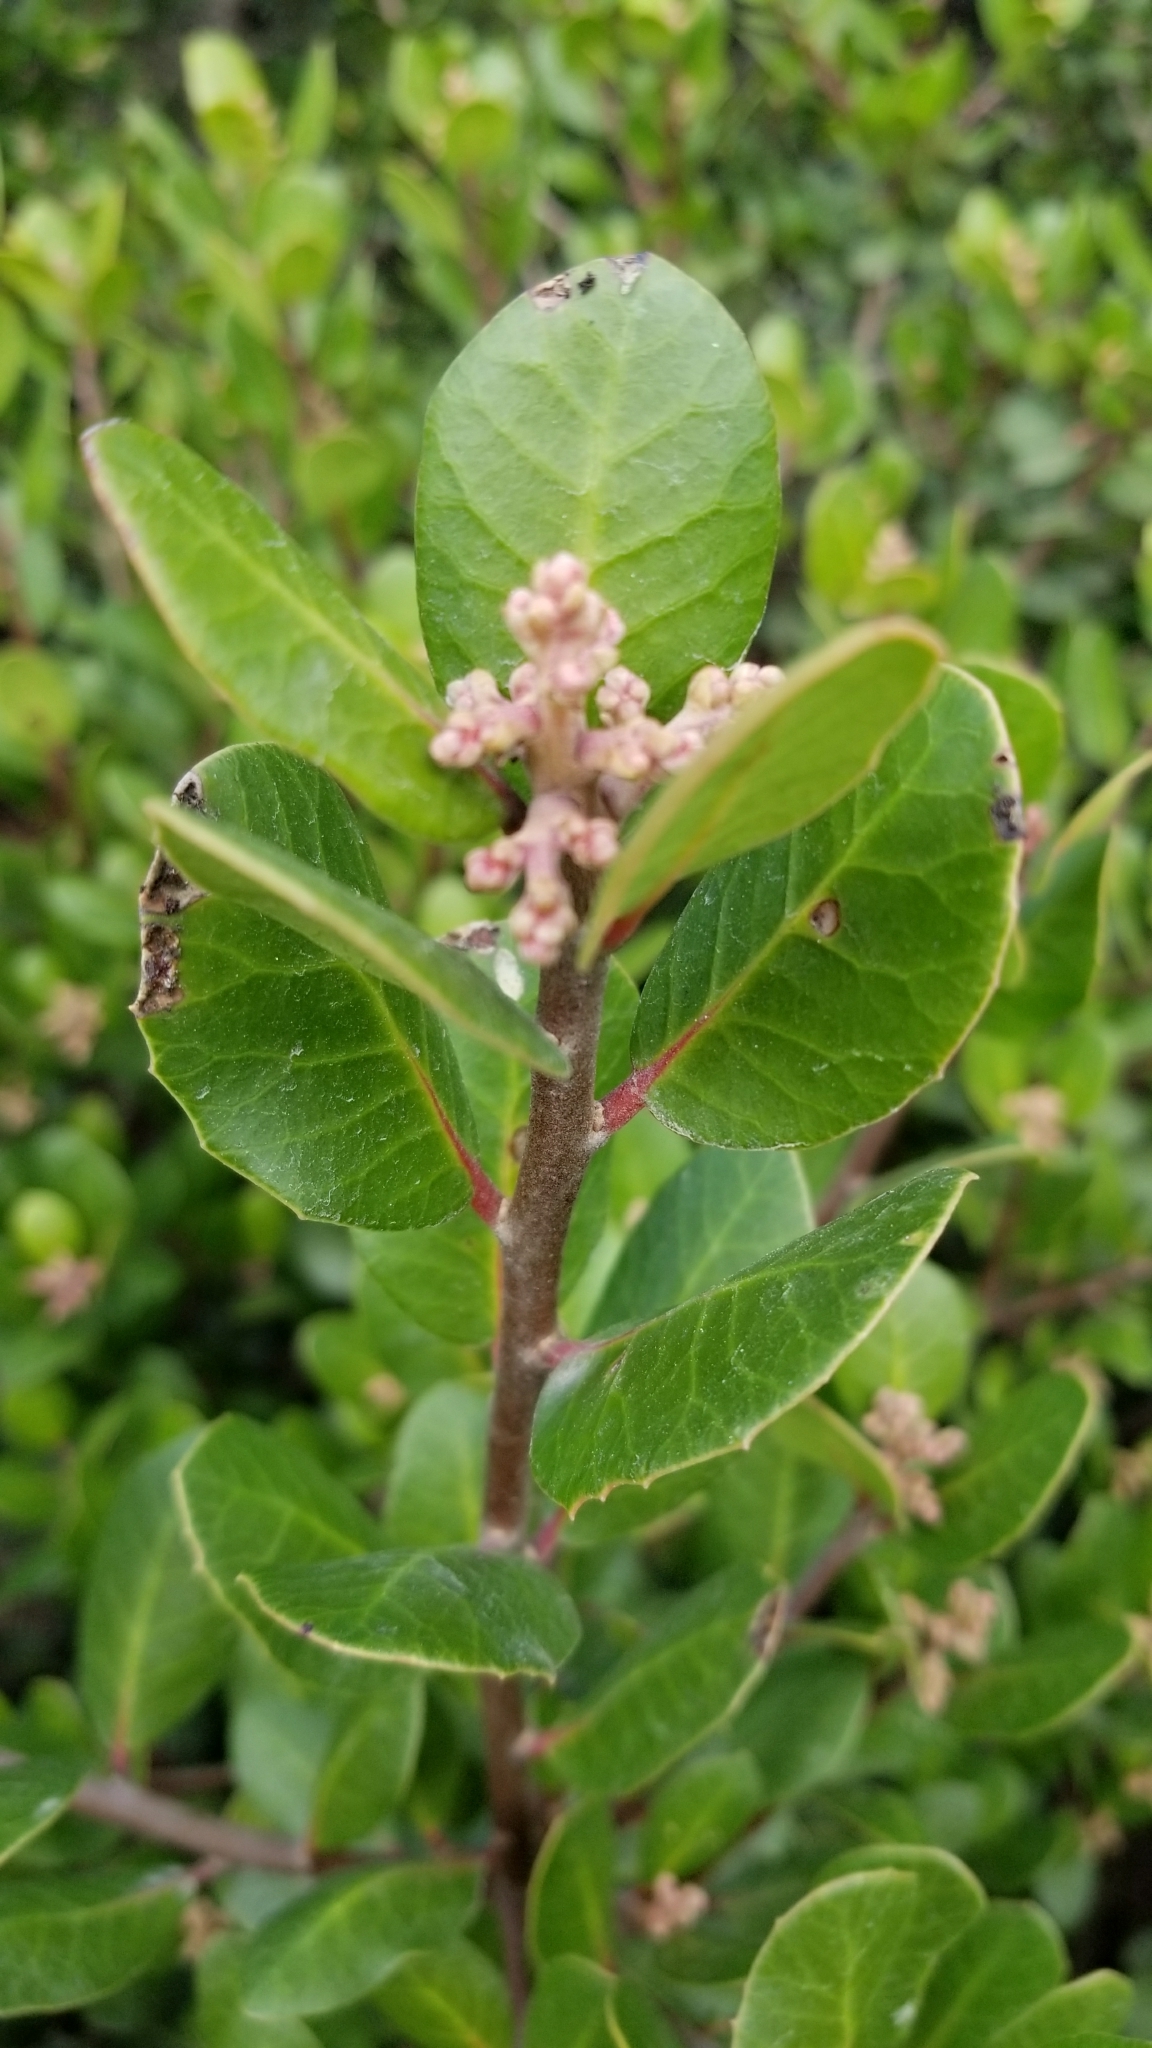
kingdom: Plantae
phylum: Tracheophyta
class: Magnoliopsida
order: Sapindales
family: Anacardiaceae
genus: Rhus
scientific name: Rhus integrifolia
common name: Lemonade sumac
